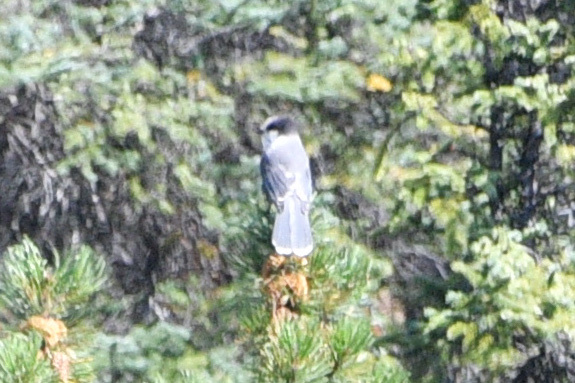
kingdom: Animalia
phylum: Chordata
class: Aves
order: Passeriformes
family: Corvidae
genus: Perisoreus
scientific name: Perisoreus canadensis
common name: Gray jay
